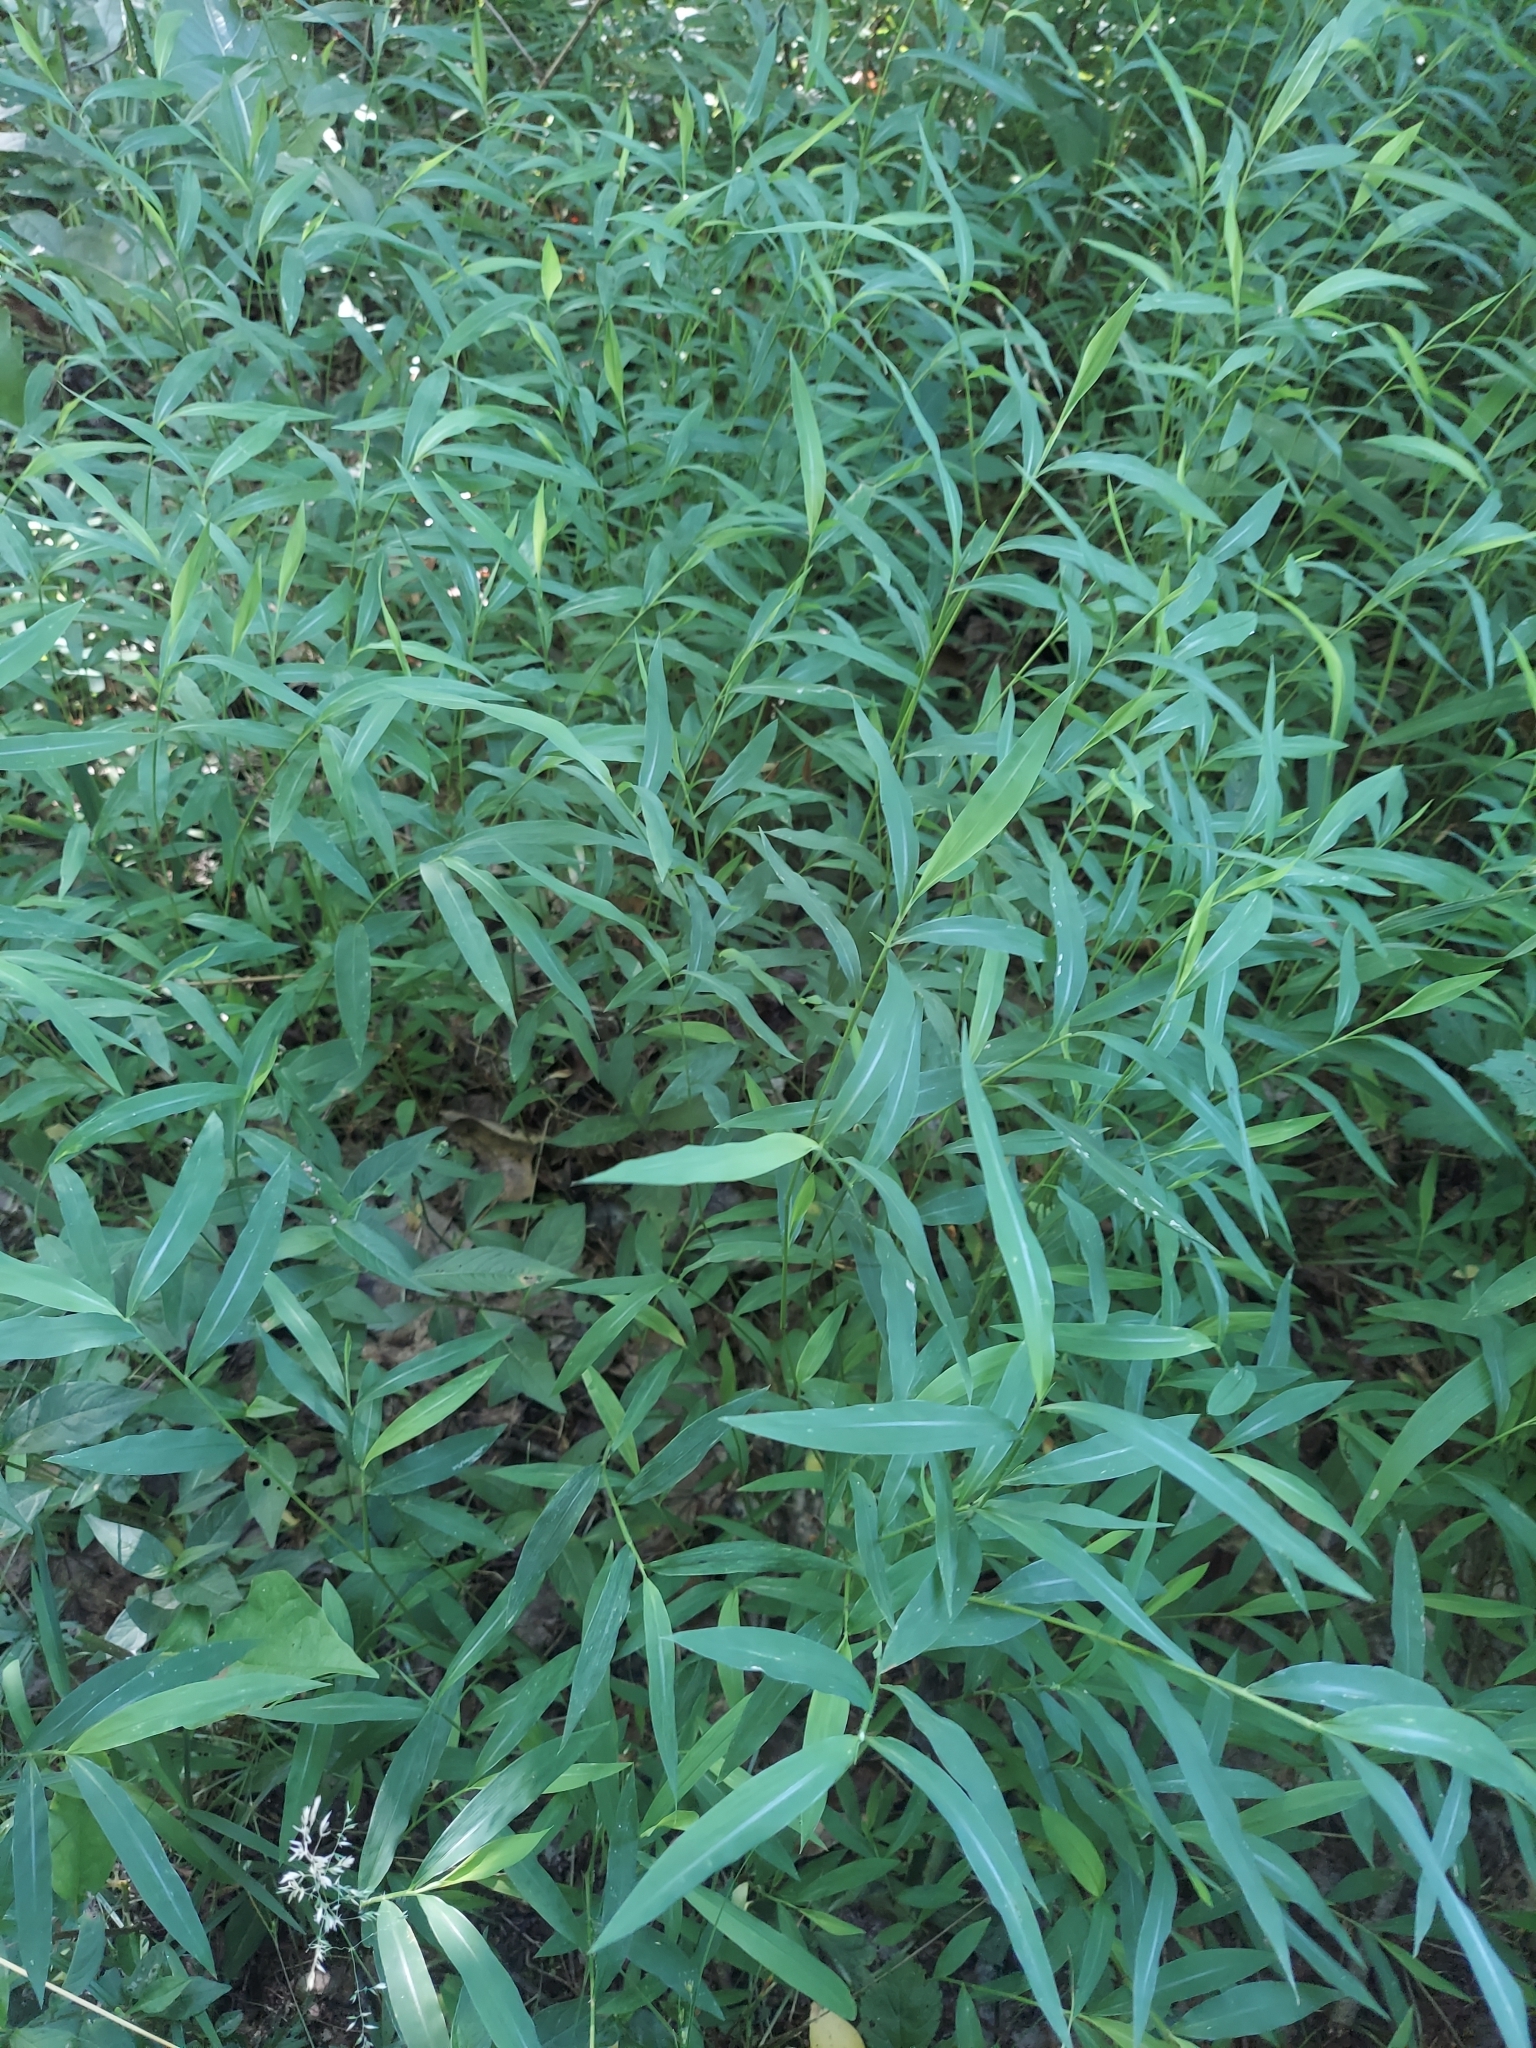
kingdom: Plantae
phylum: Tracheophyta
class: Liliopsida
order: Poales
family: Poaceae
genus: Microstegium
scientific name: Microstegium vimineum
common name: Japanese stiltgrass
